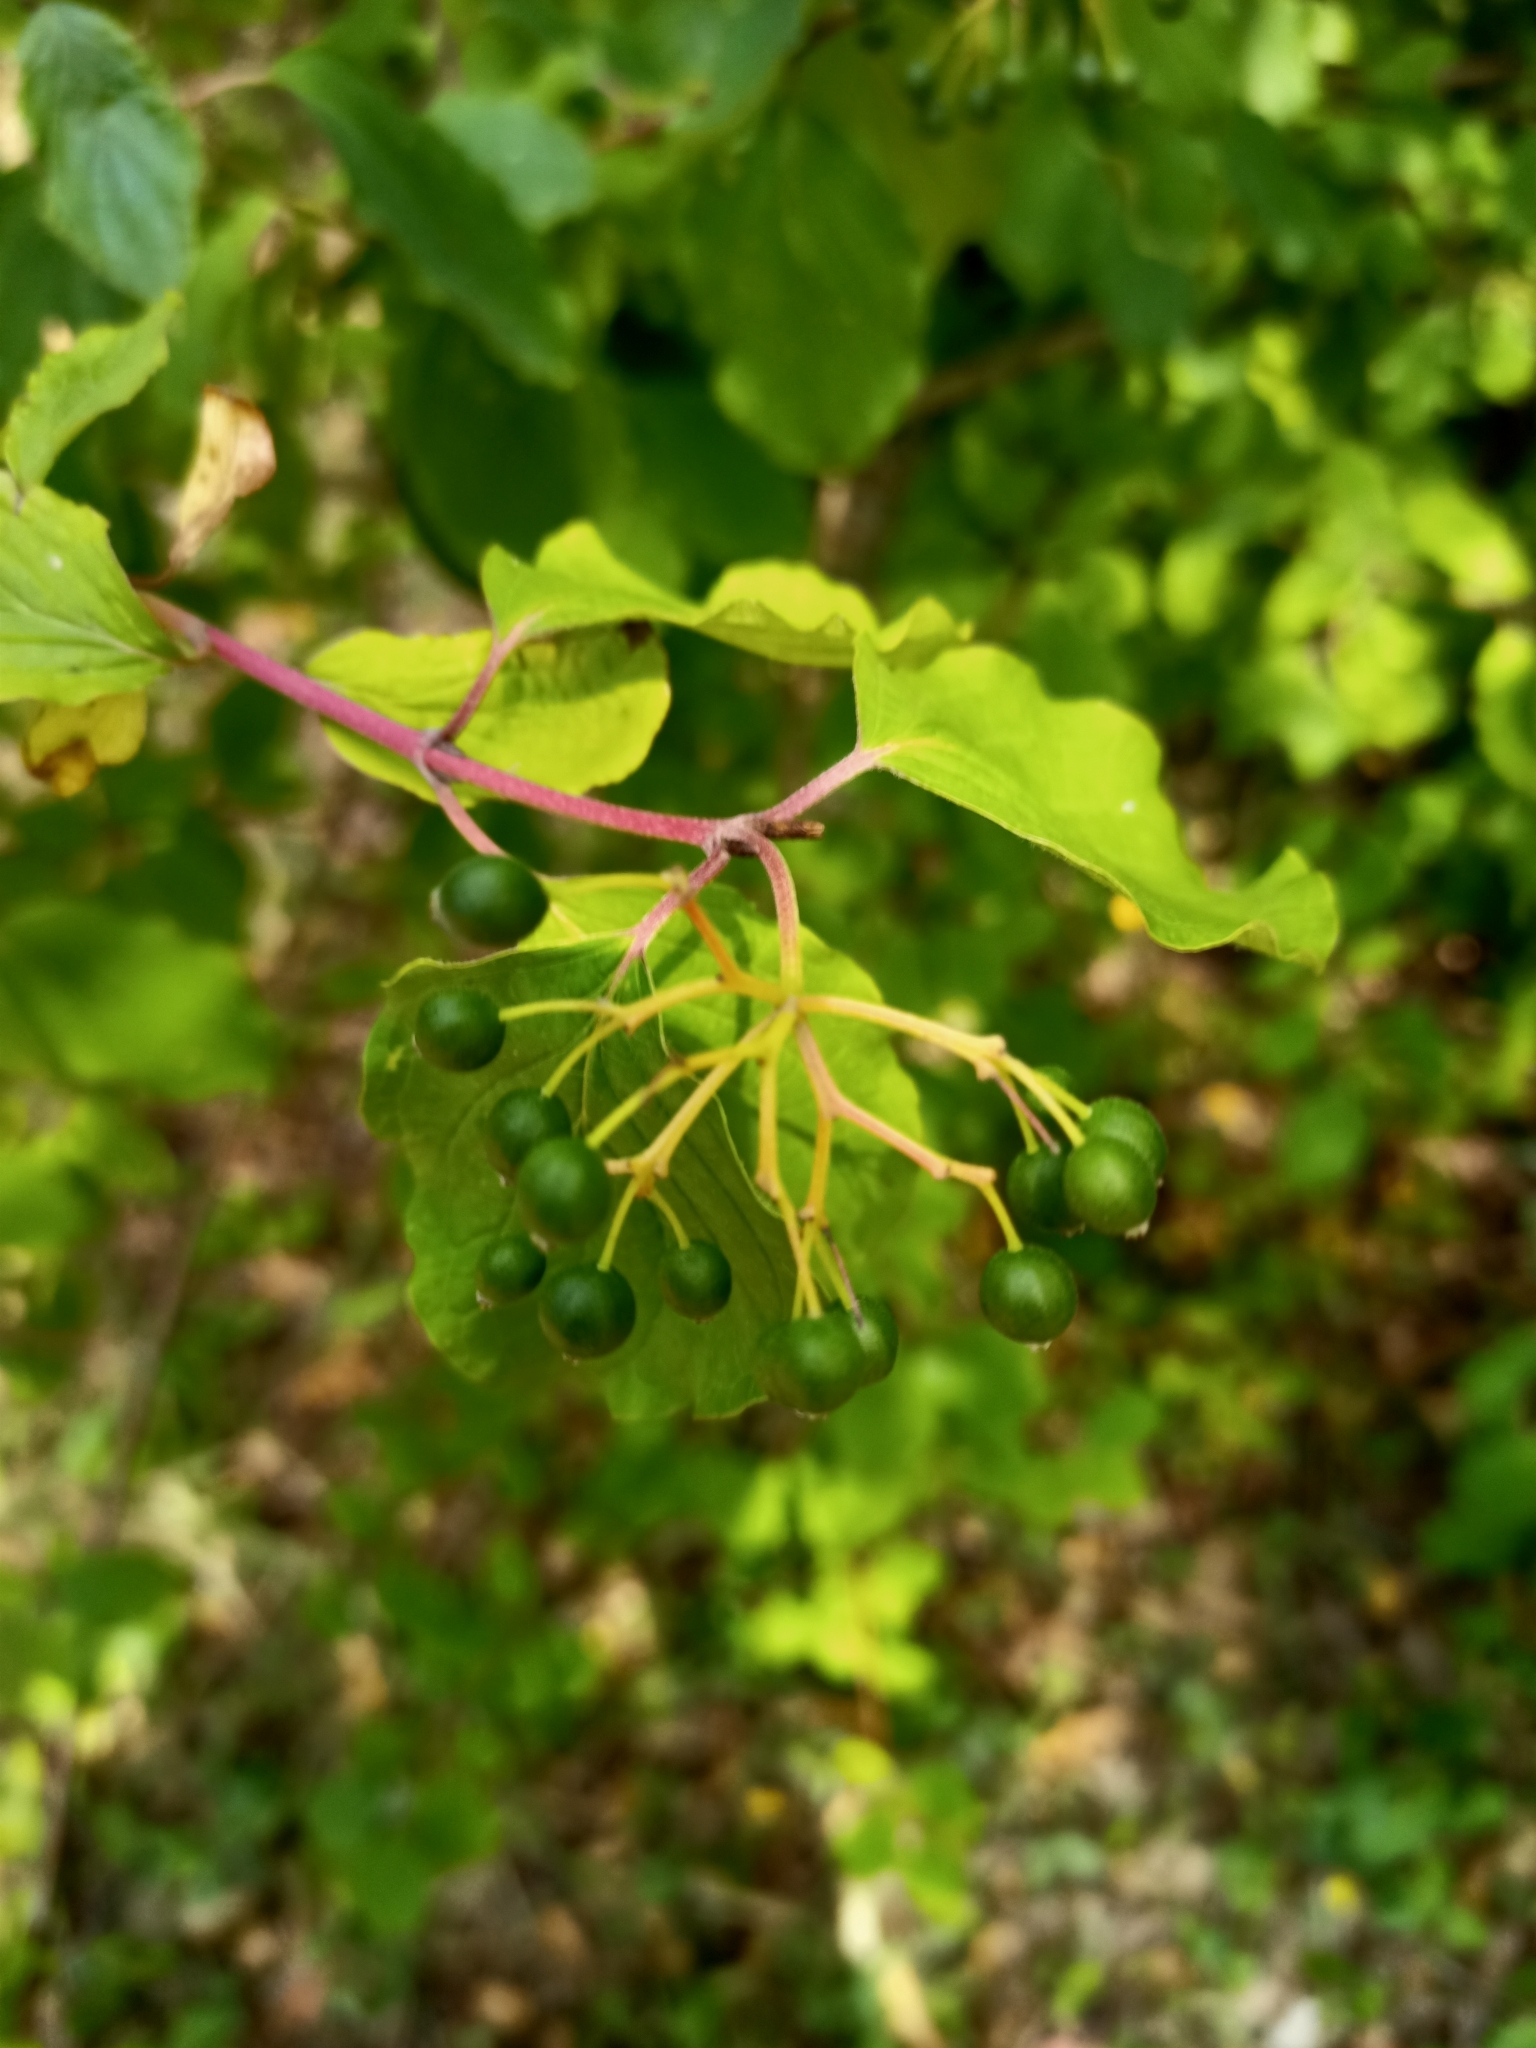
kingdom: Plantae
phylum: Tracheophyta
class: Magnoliopsida
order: Cornales
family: Cornaceae
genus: Cornus
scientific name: Cornus sanguinea
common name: Dogwood
